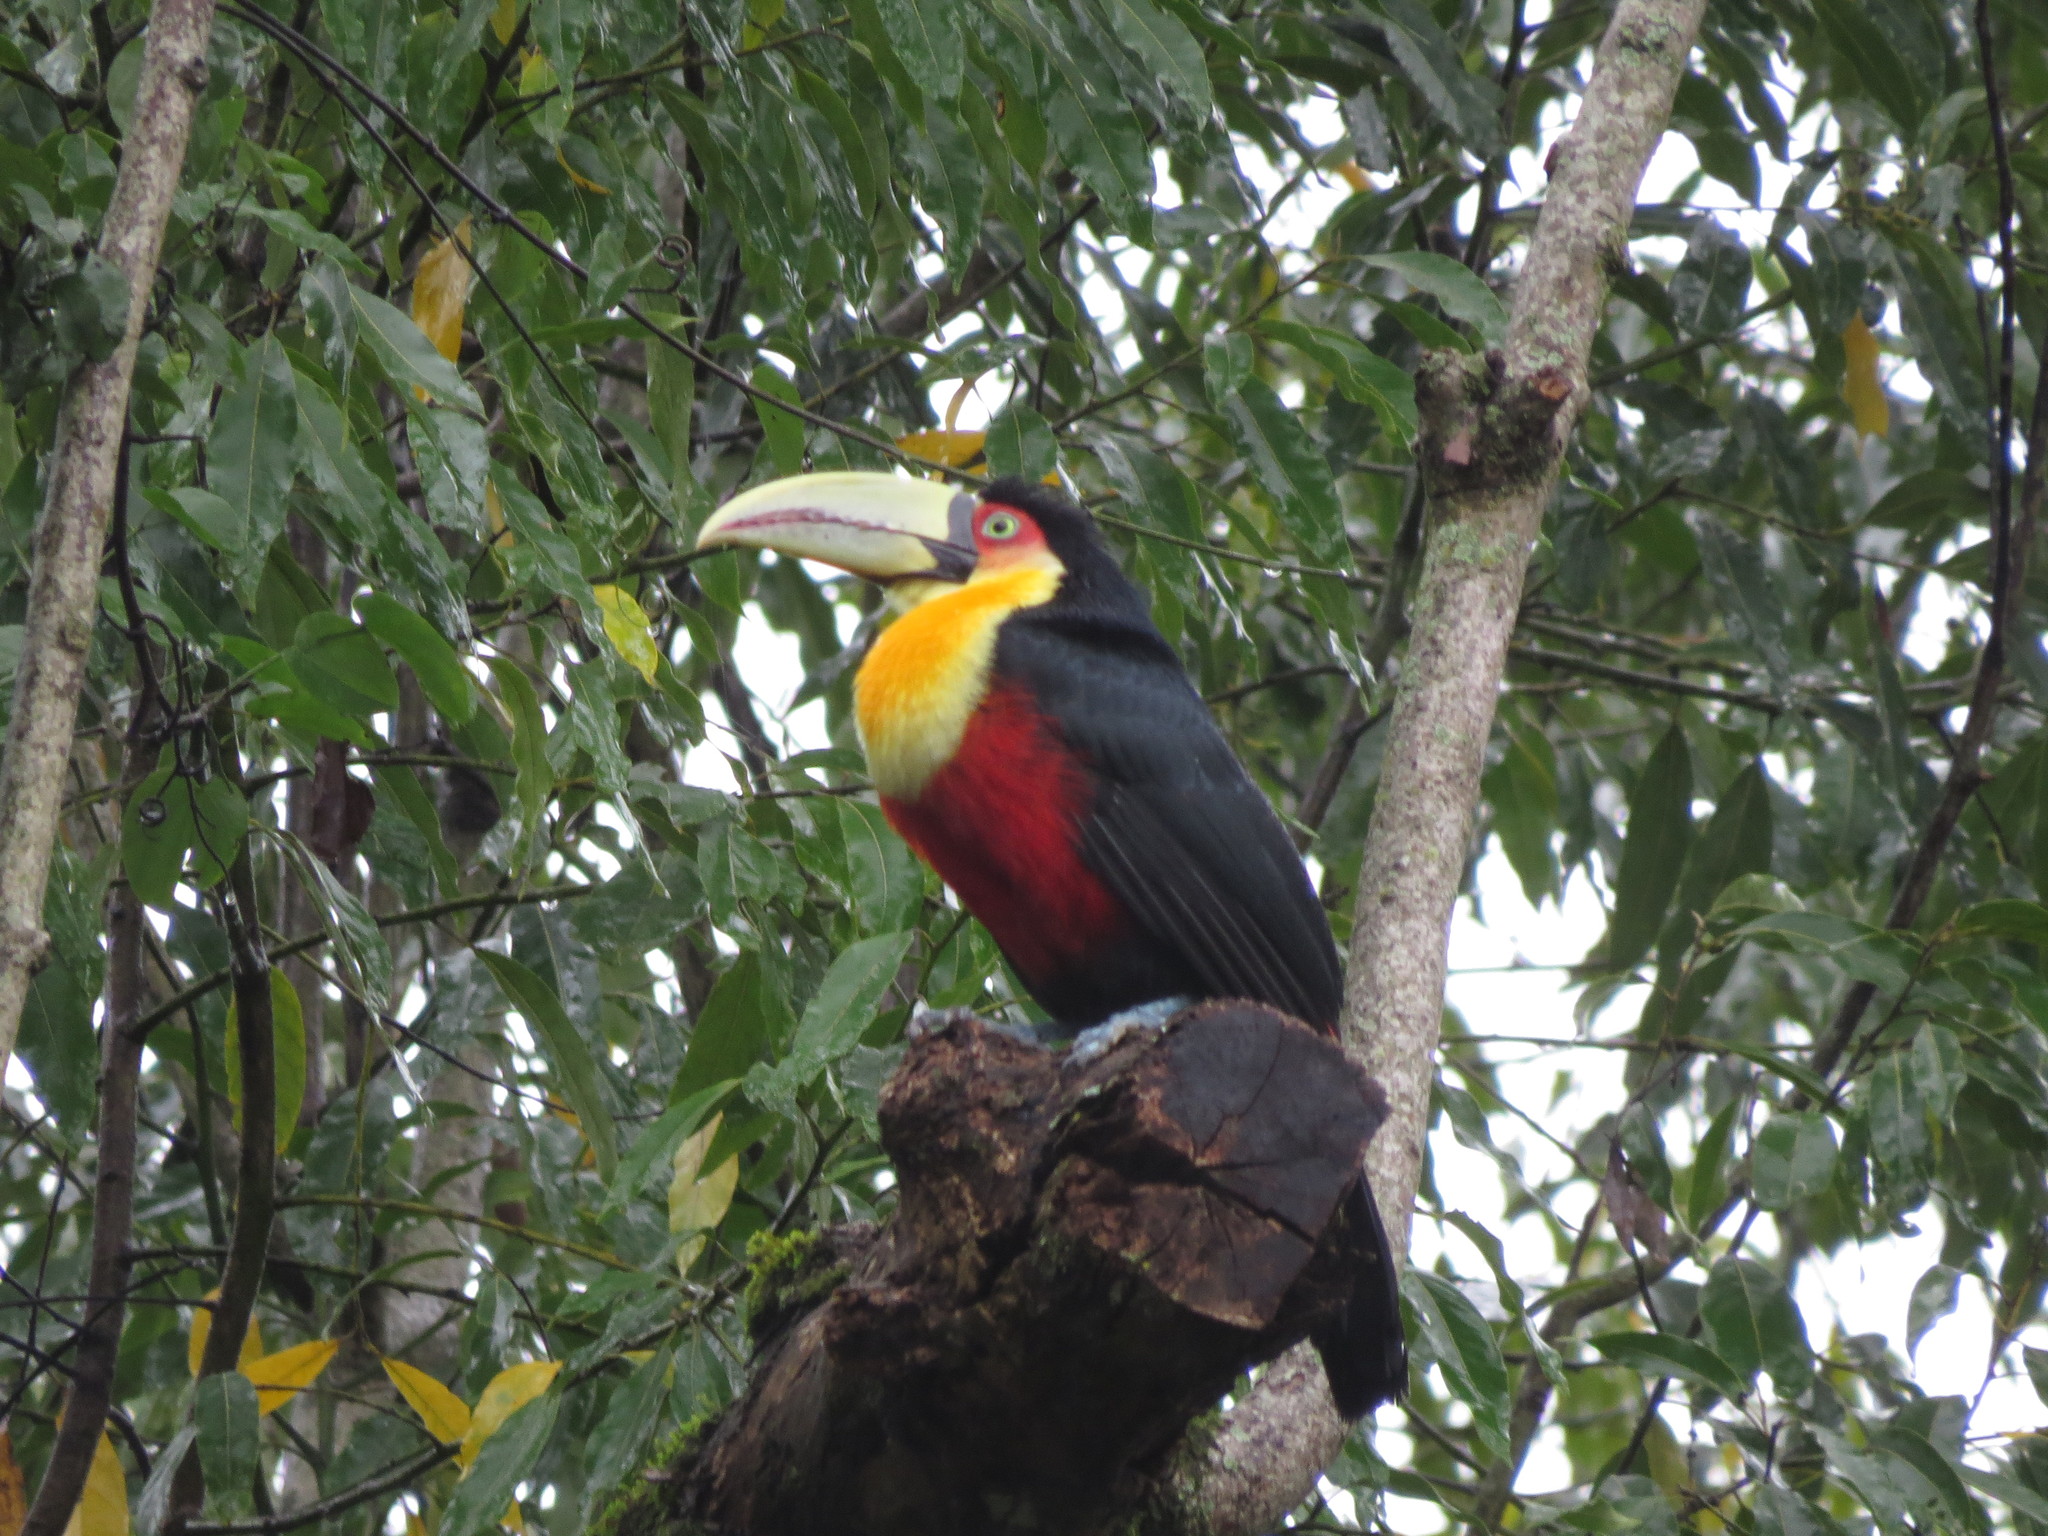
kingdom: Animalia
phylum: Chordata
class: Aves
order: Piciformes
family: Ramphastidae
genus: Ramphastos
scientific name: Ramphastos dicolorus
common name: Green-billed toucan
